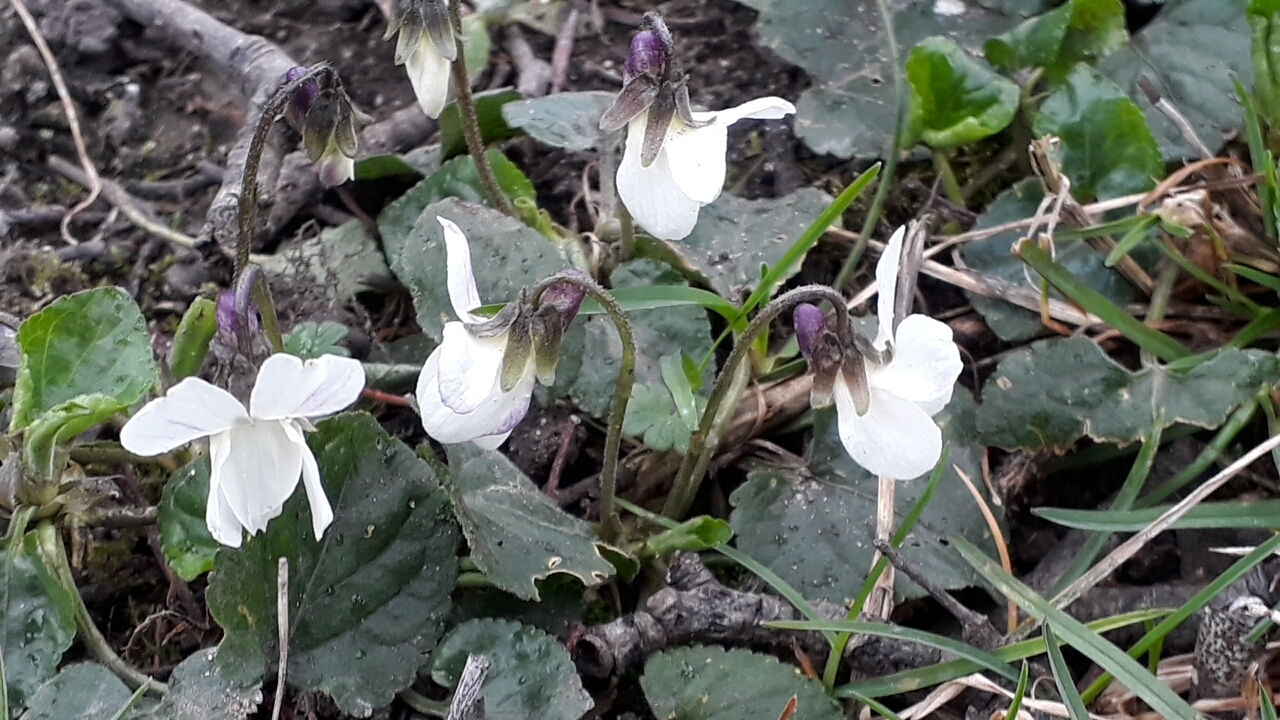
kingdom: Plantae
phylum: Tracheophyta
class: Magnoliopsida
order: Malpighiales
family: Violaceae
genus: Viola
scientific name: Viola odorata
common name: Sweet violet
